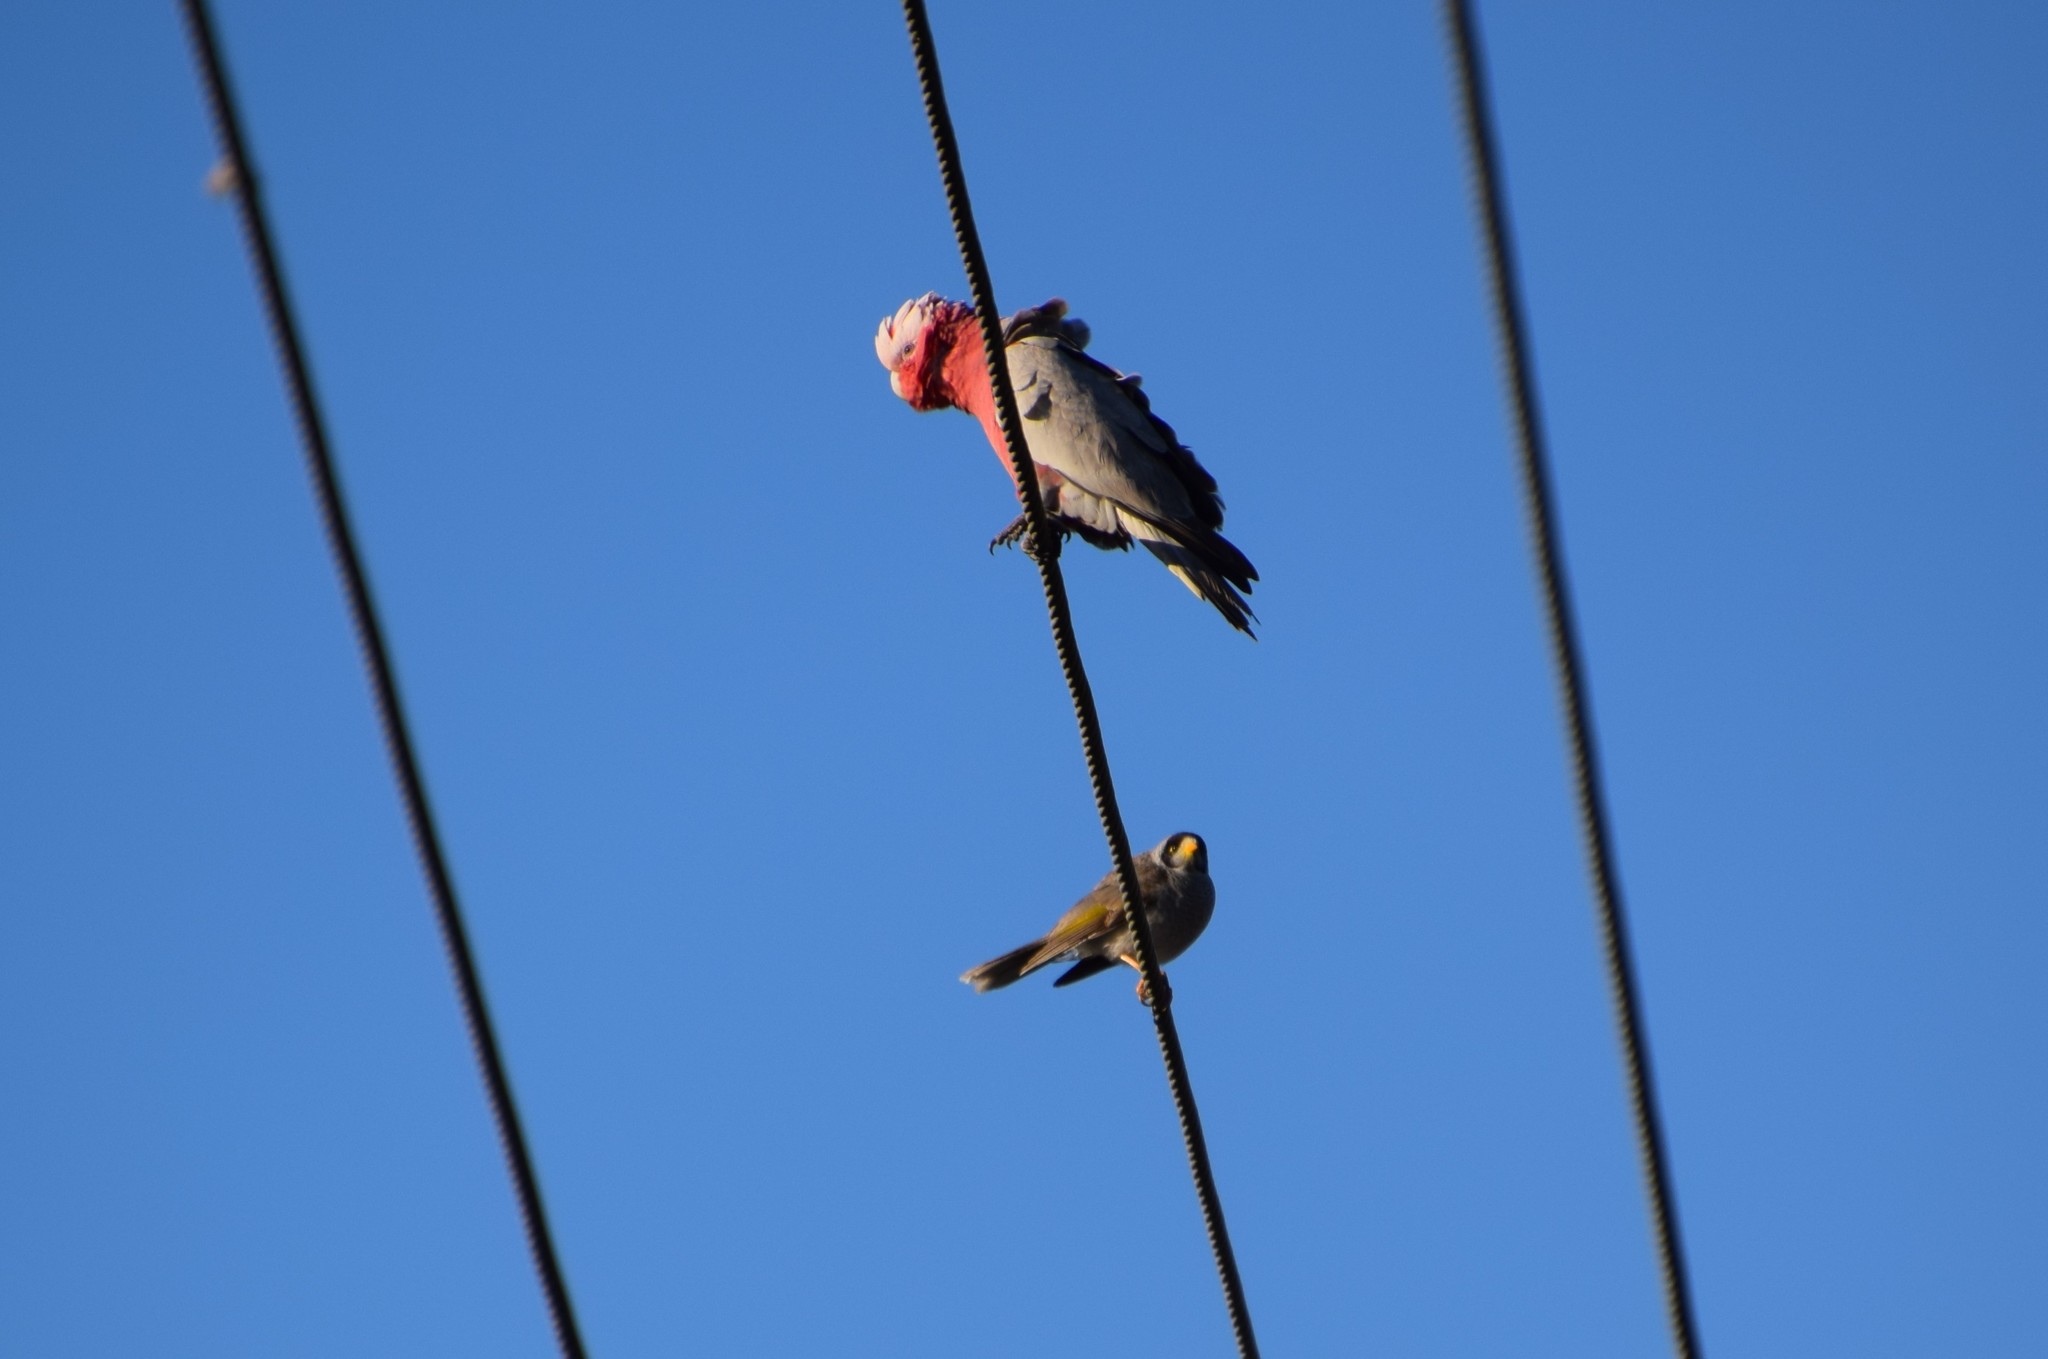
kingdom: Animalia
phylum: Chordata
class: Aves
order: Passeriformes
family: Meliphagidae
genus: Manorina
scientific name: Manorina melanocephala
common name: Noisy miner
